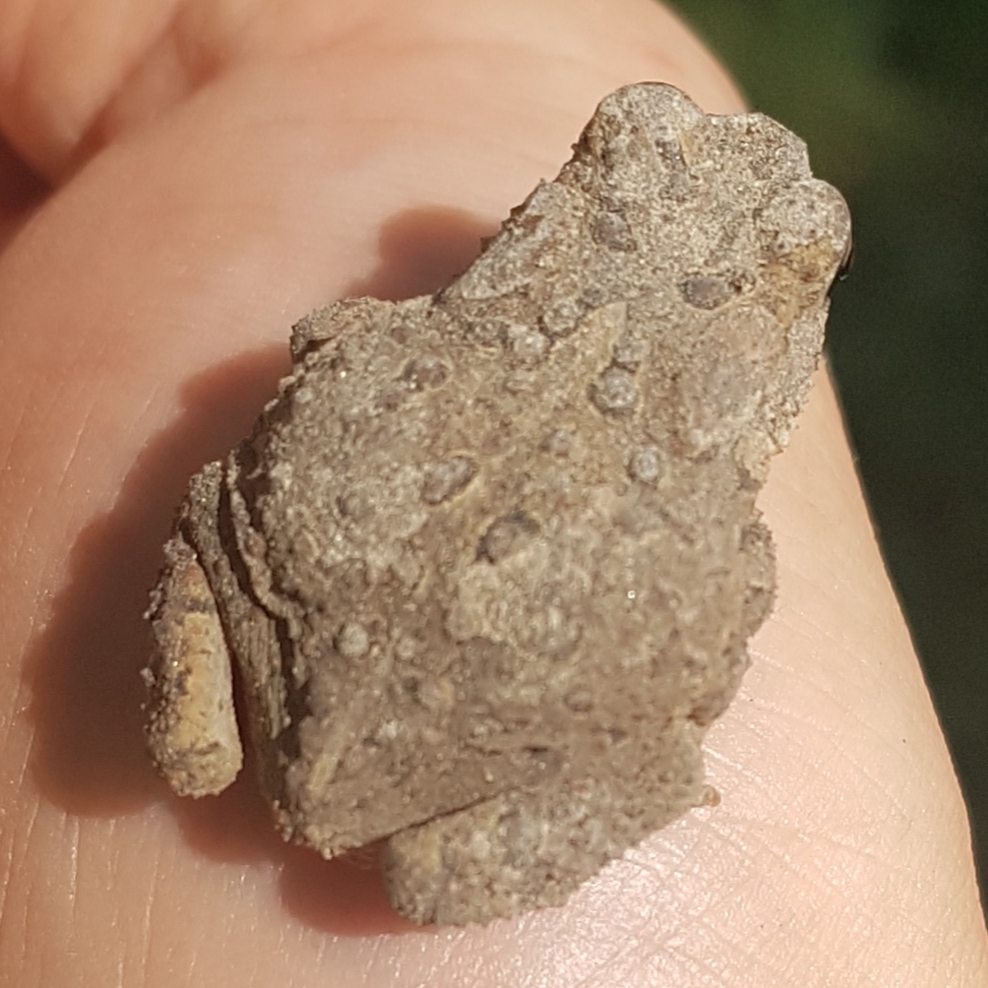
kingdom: Animalia
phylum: Chordata
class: Amphibia
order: Anura
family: Bufonidae
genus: Anaxyrus
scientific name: Anaxyrus americanus
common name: American toad
